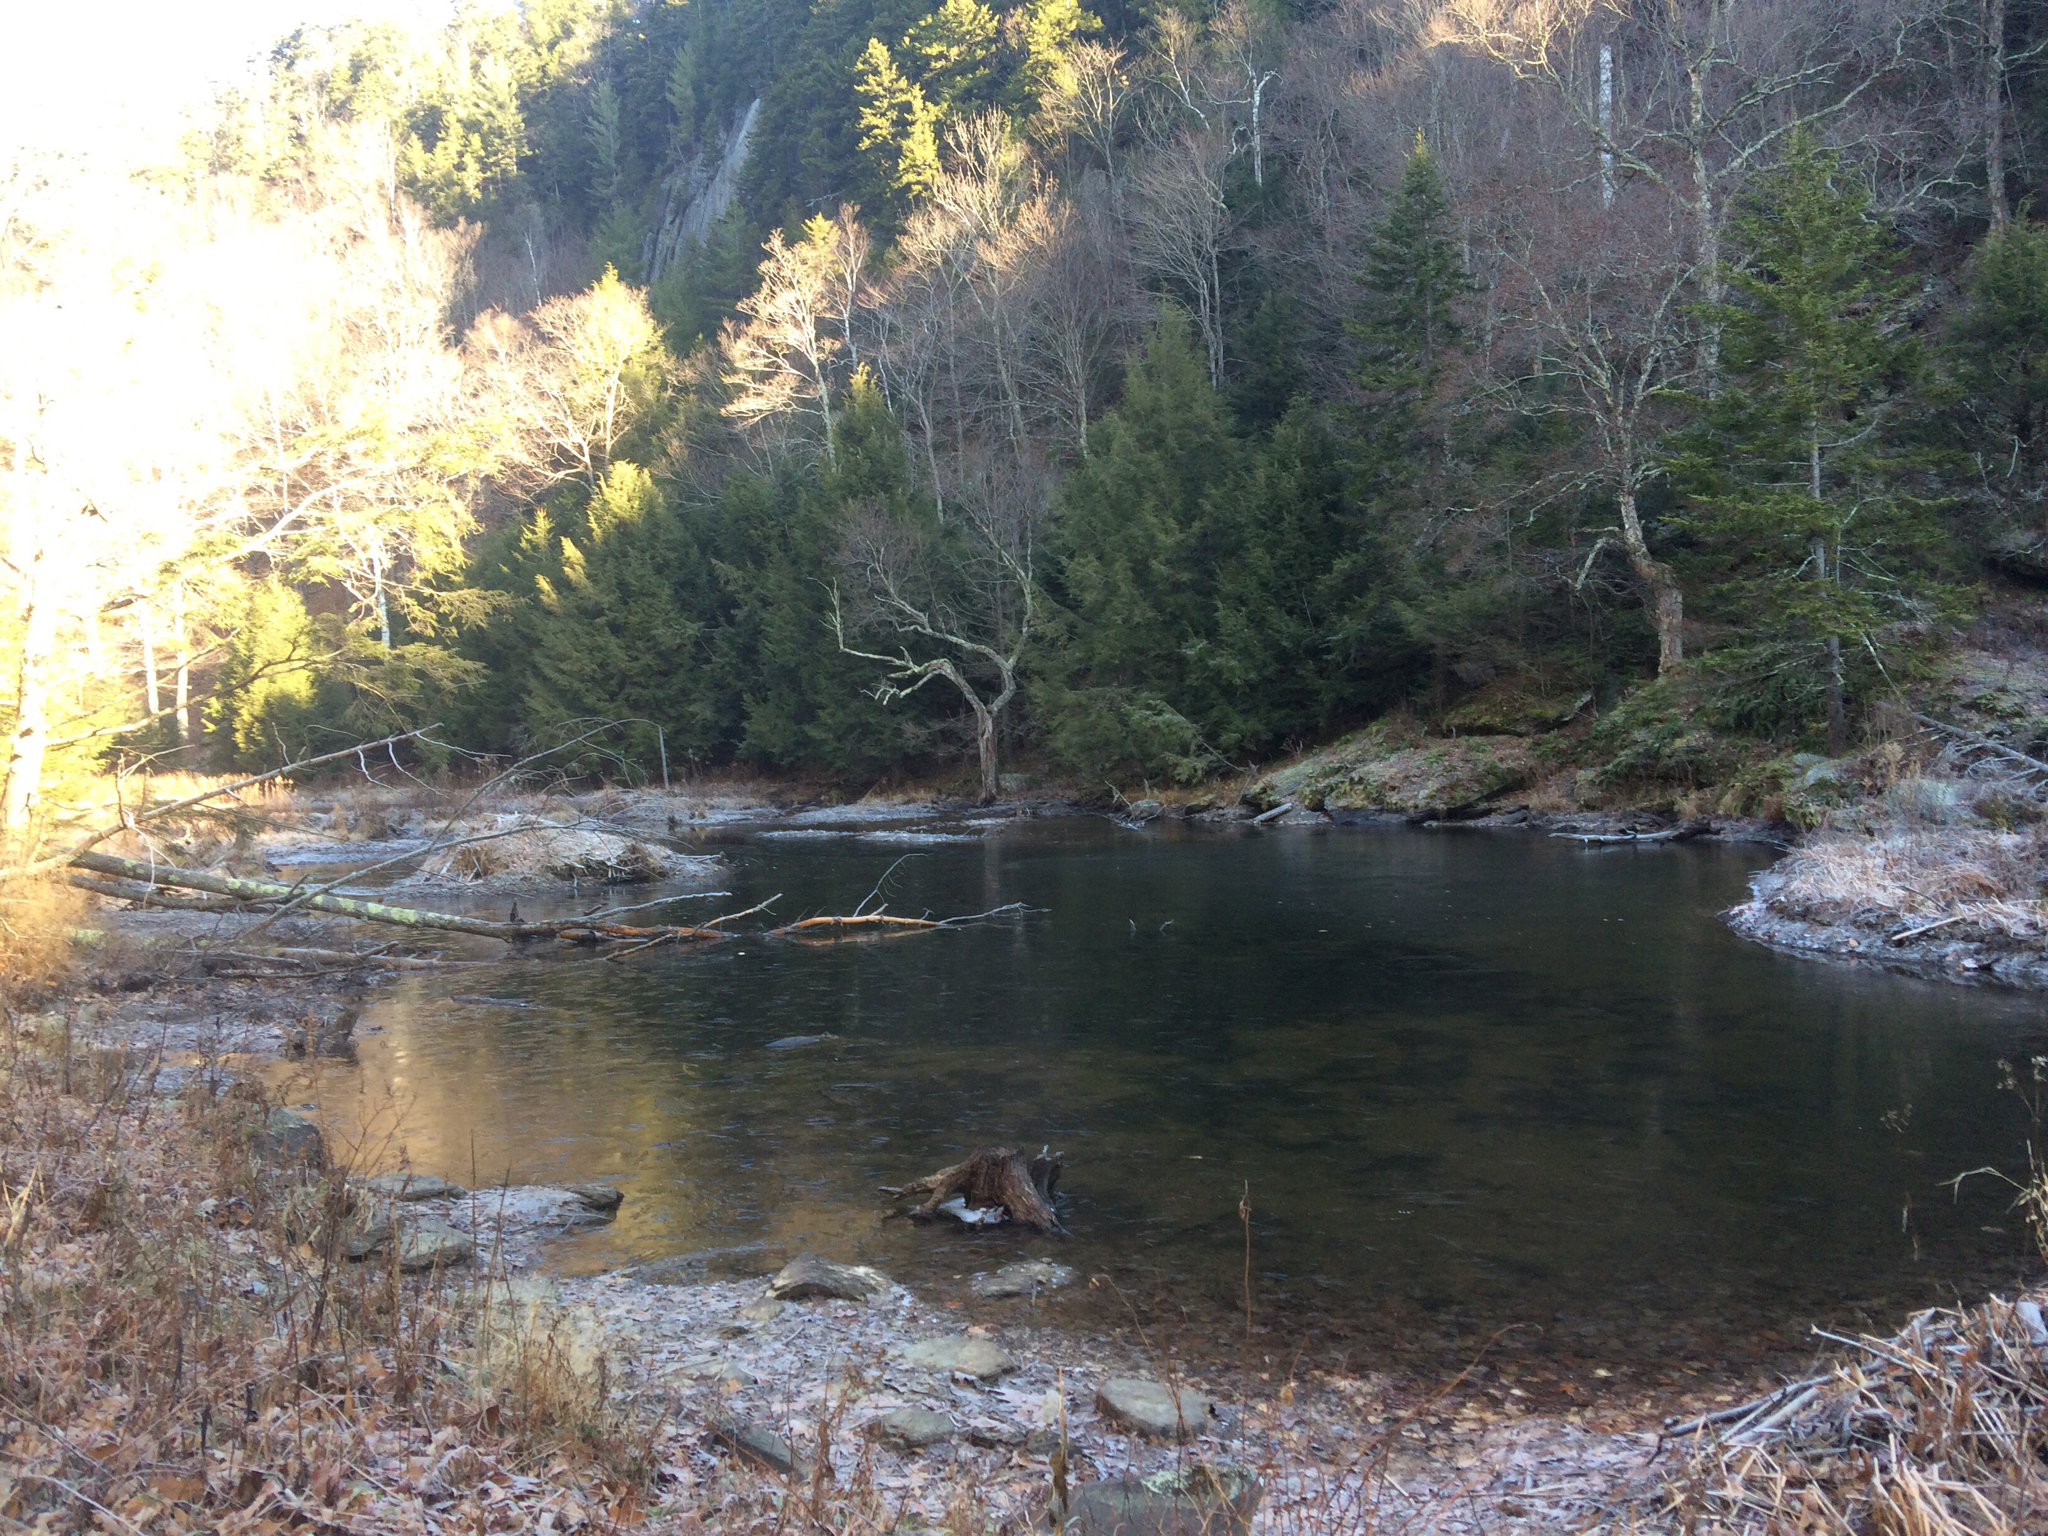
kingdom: Animalia
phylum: Chordata
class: Mammalia
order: Rodentia
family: Castoridae
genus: Castor
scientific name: Castor canadensis
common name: American beaver
